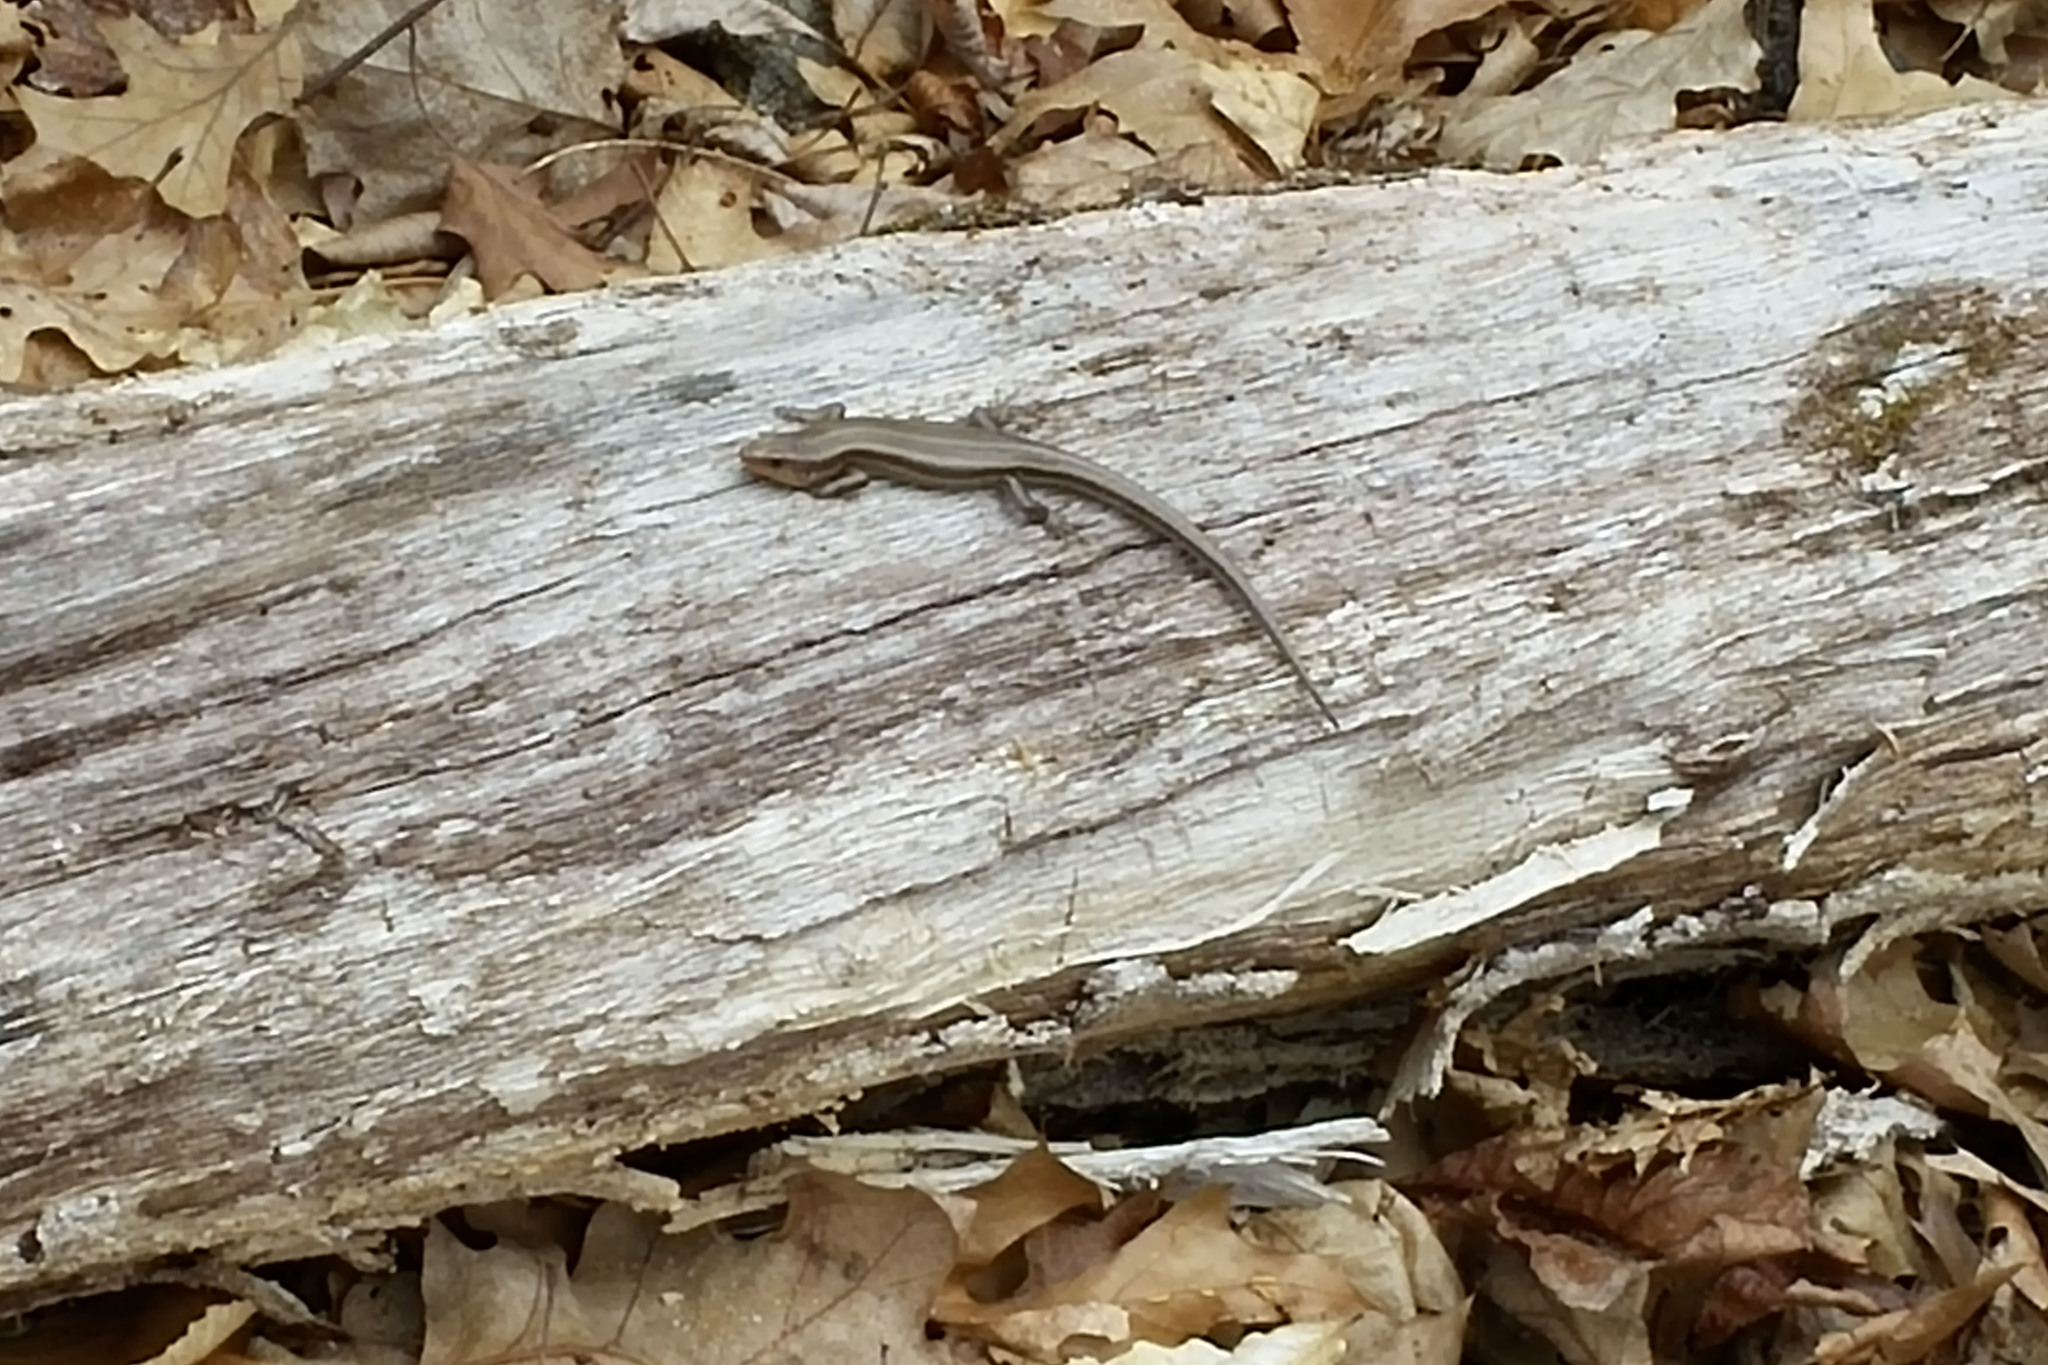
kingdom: Animalia
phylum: Chordata
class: Squamata
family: Scincidae
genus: Plestiodon
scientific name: Plestiodon fasciatus
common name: Five-lined skink
